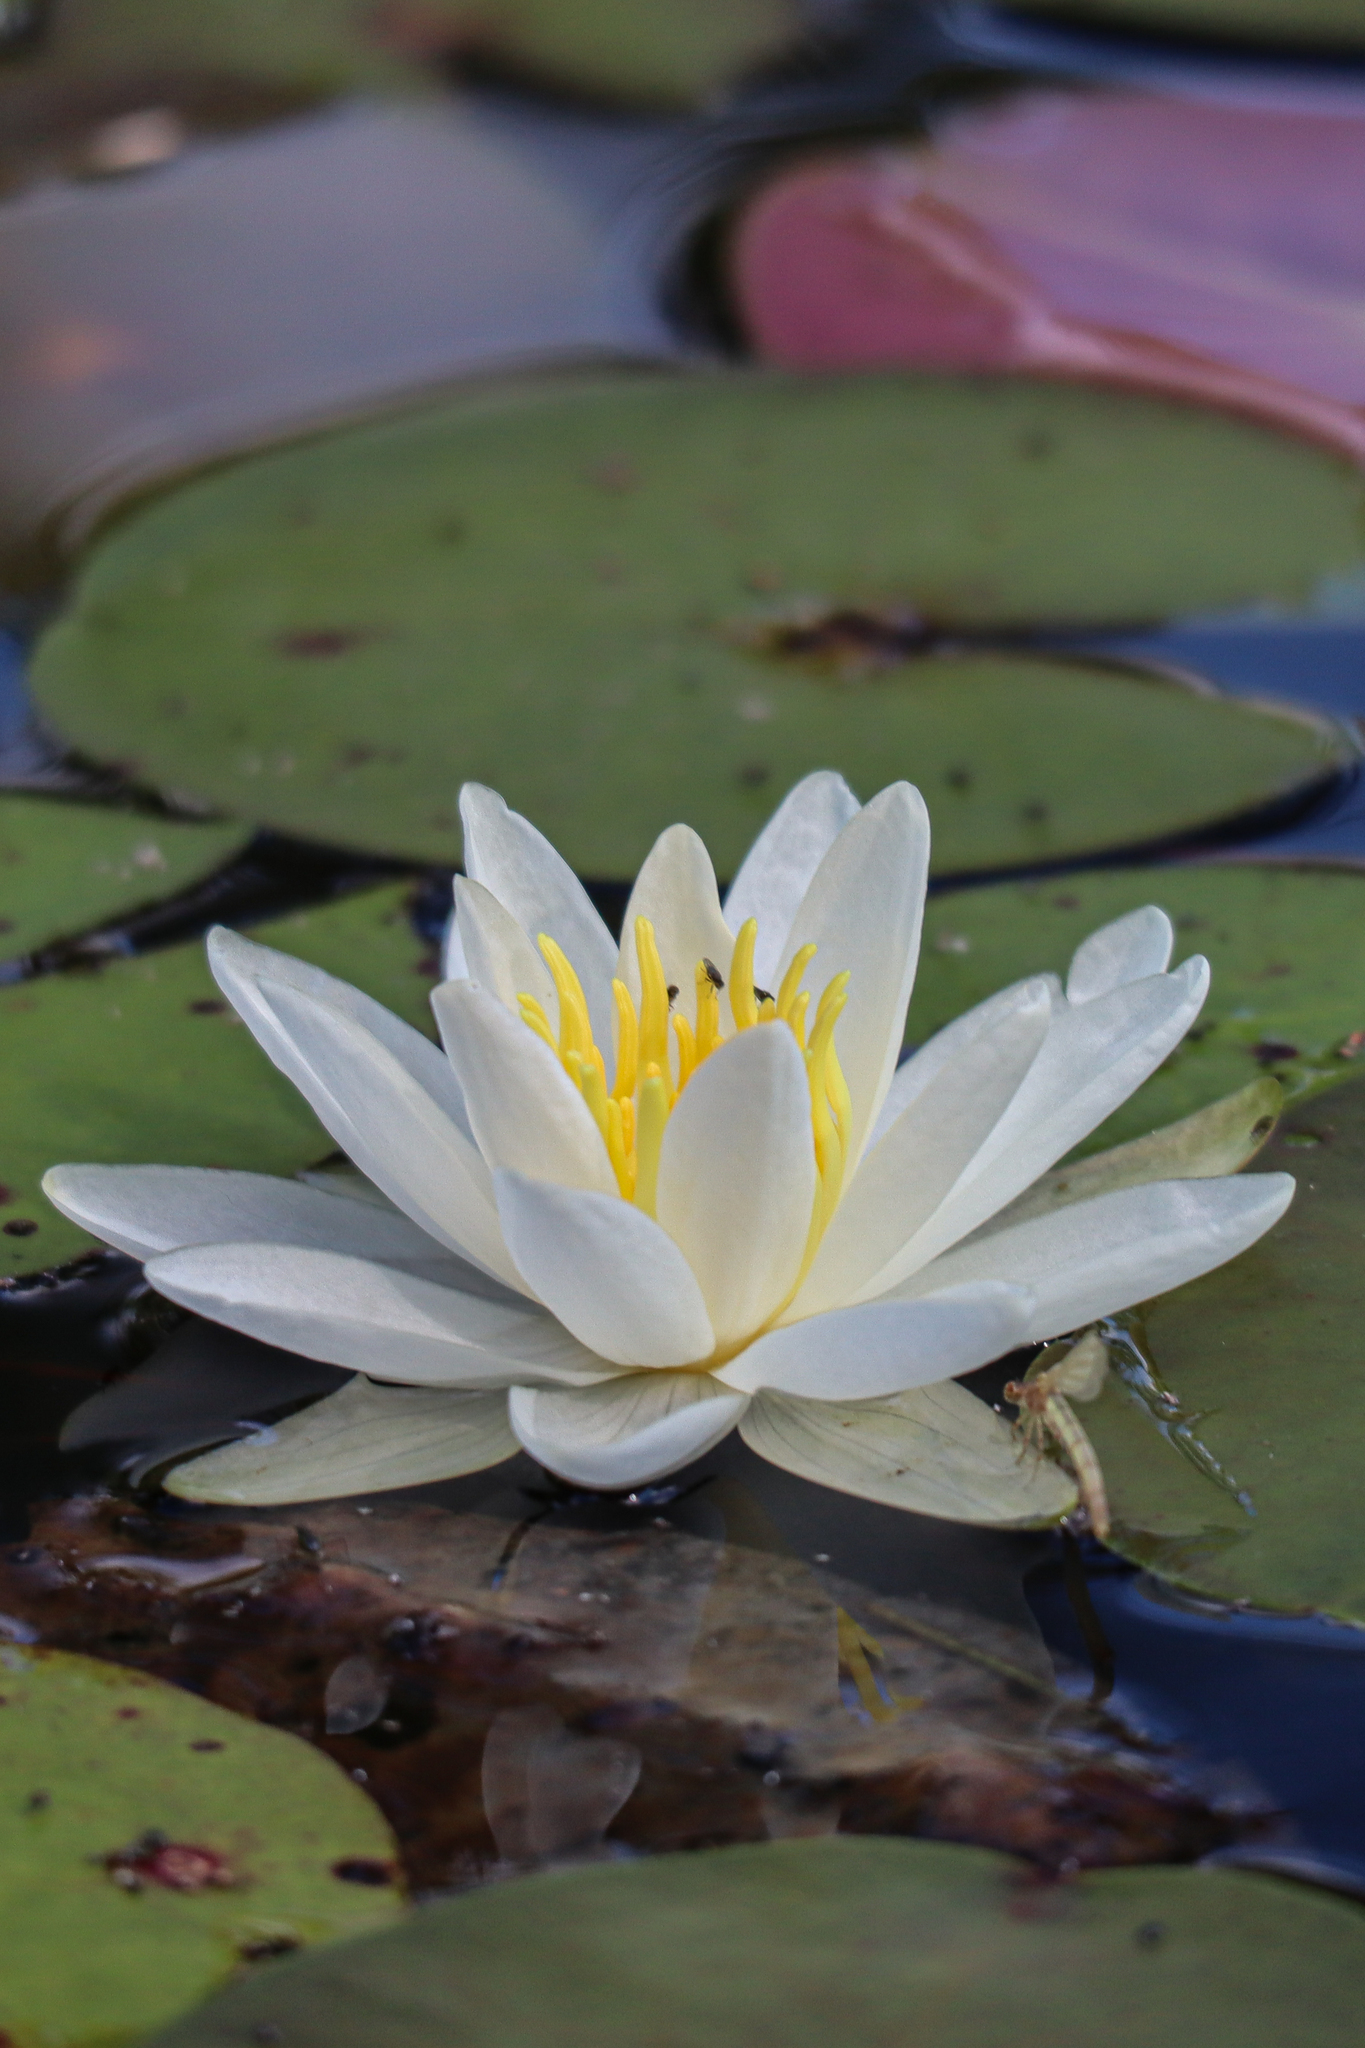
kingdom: Plantae
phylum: Tracheophyta
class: Magnoliopsida
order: Nymphaeales
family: Nymphaeaceae
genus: Nymphaea
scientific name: Nymphaea odorata
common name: Fragrant water-lily
